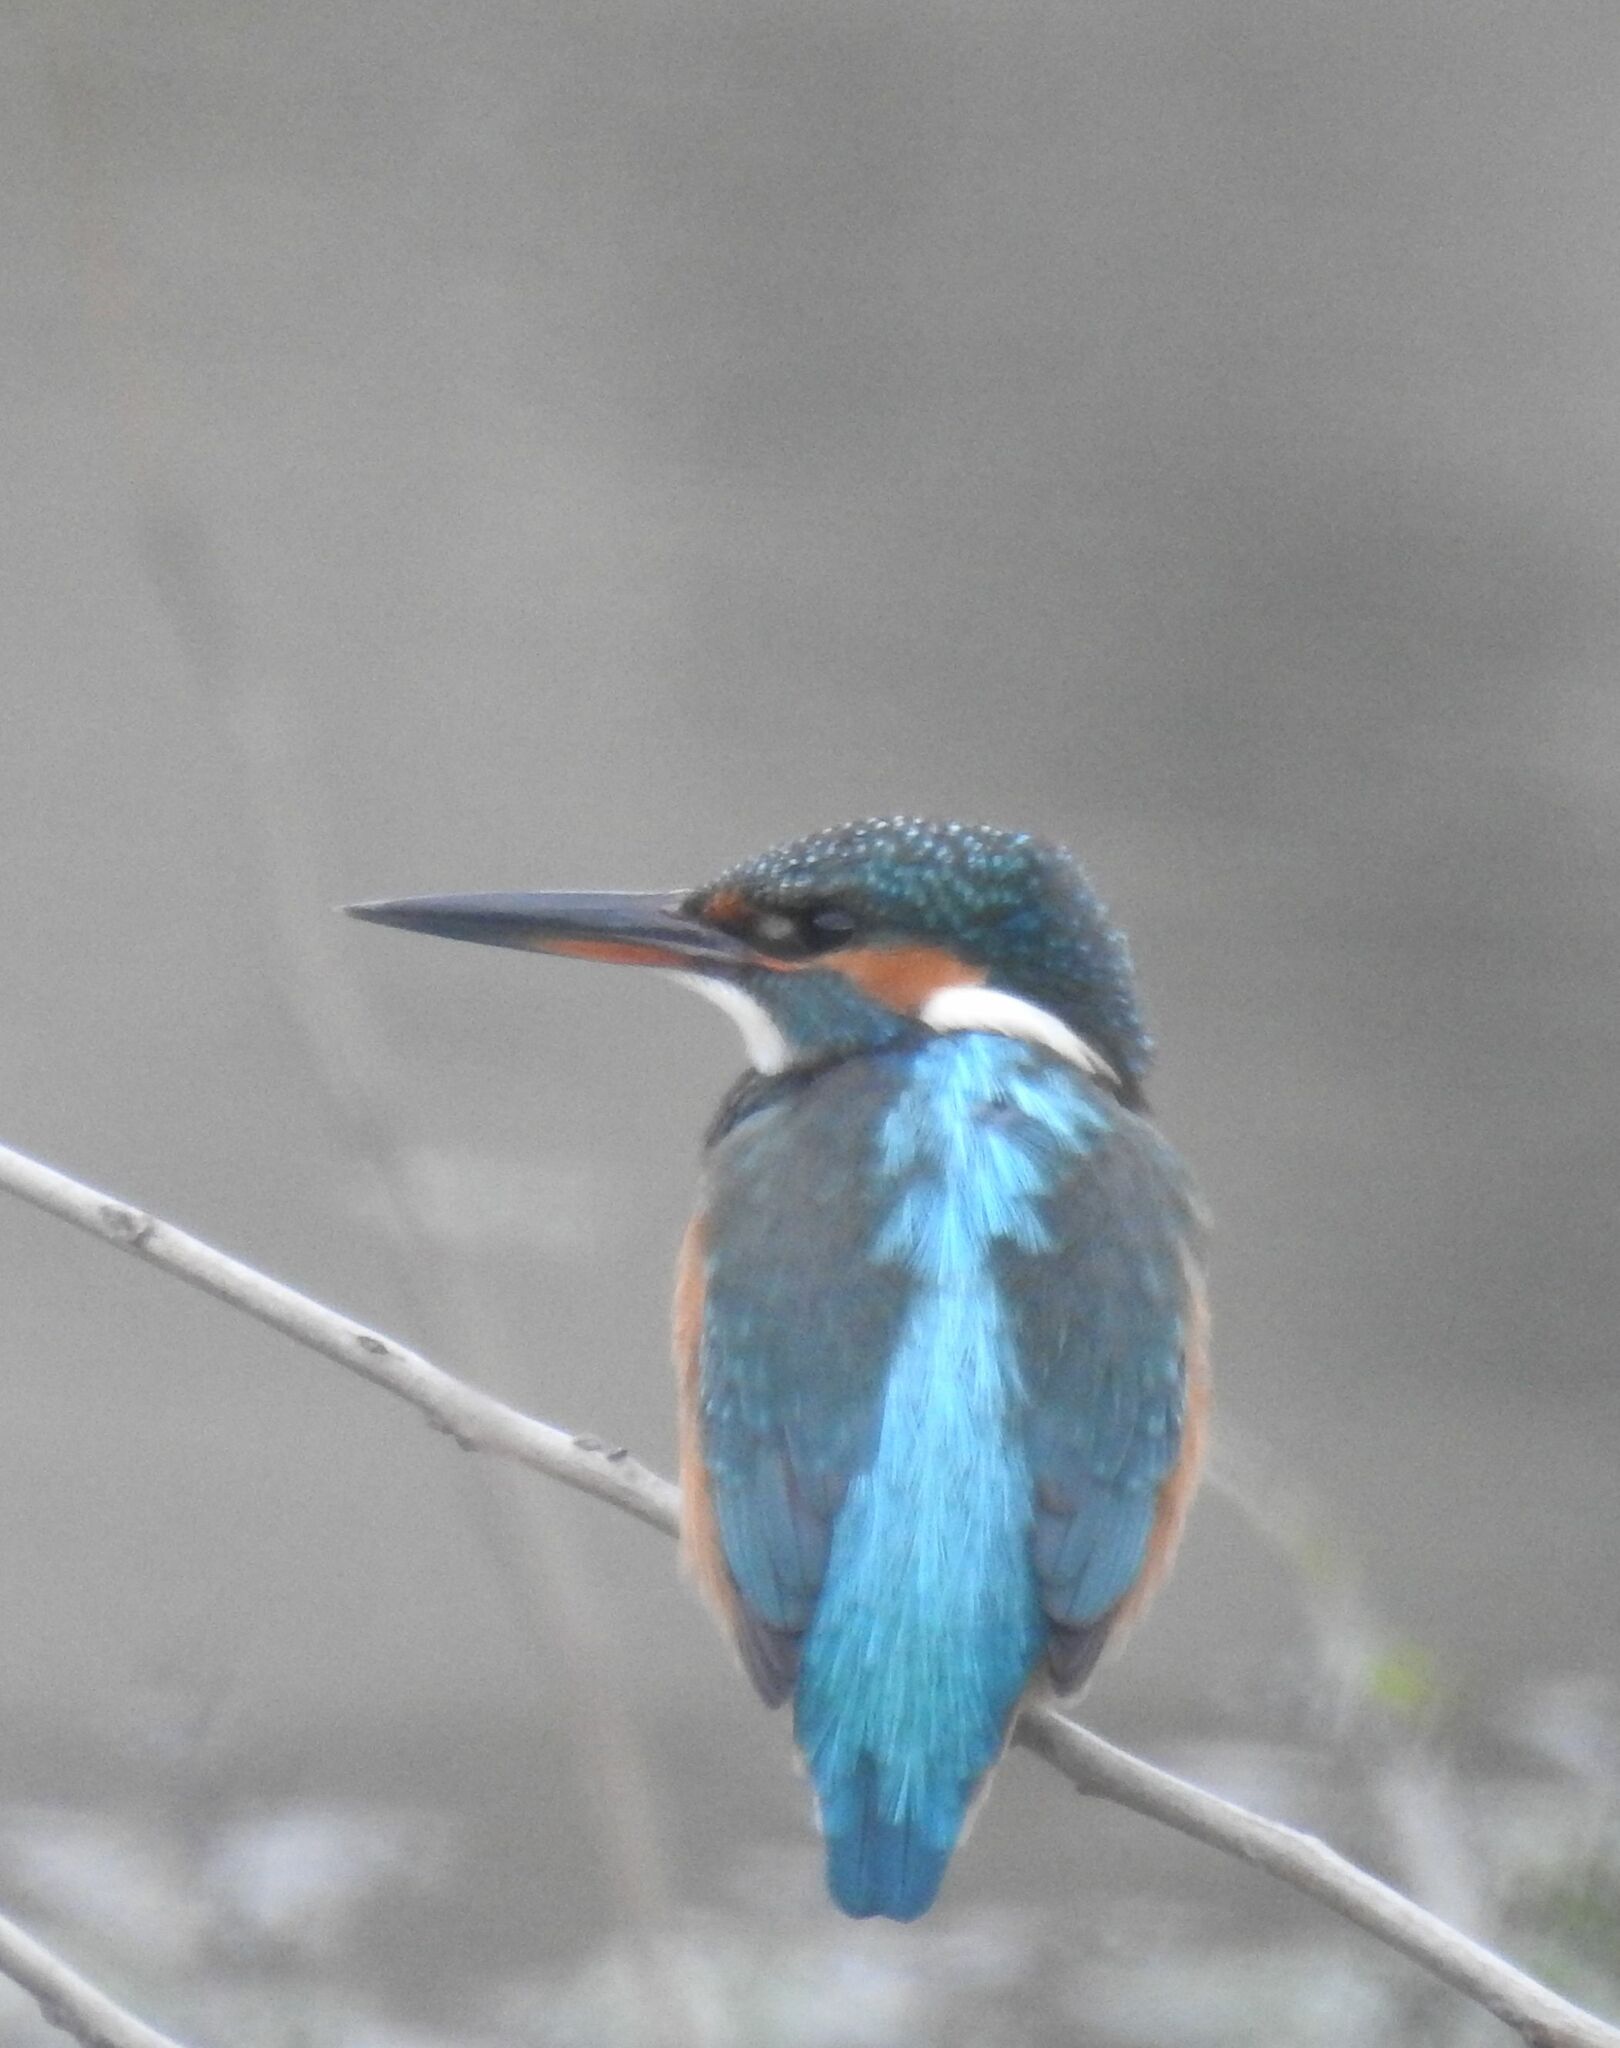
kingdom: Animalia
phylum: Chordata
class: Aves
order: Coraciiformes
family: Alcedinidae
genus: Alcedo
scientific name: Alcedo atthis
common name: Common kingfisher
